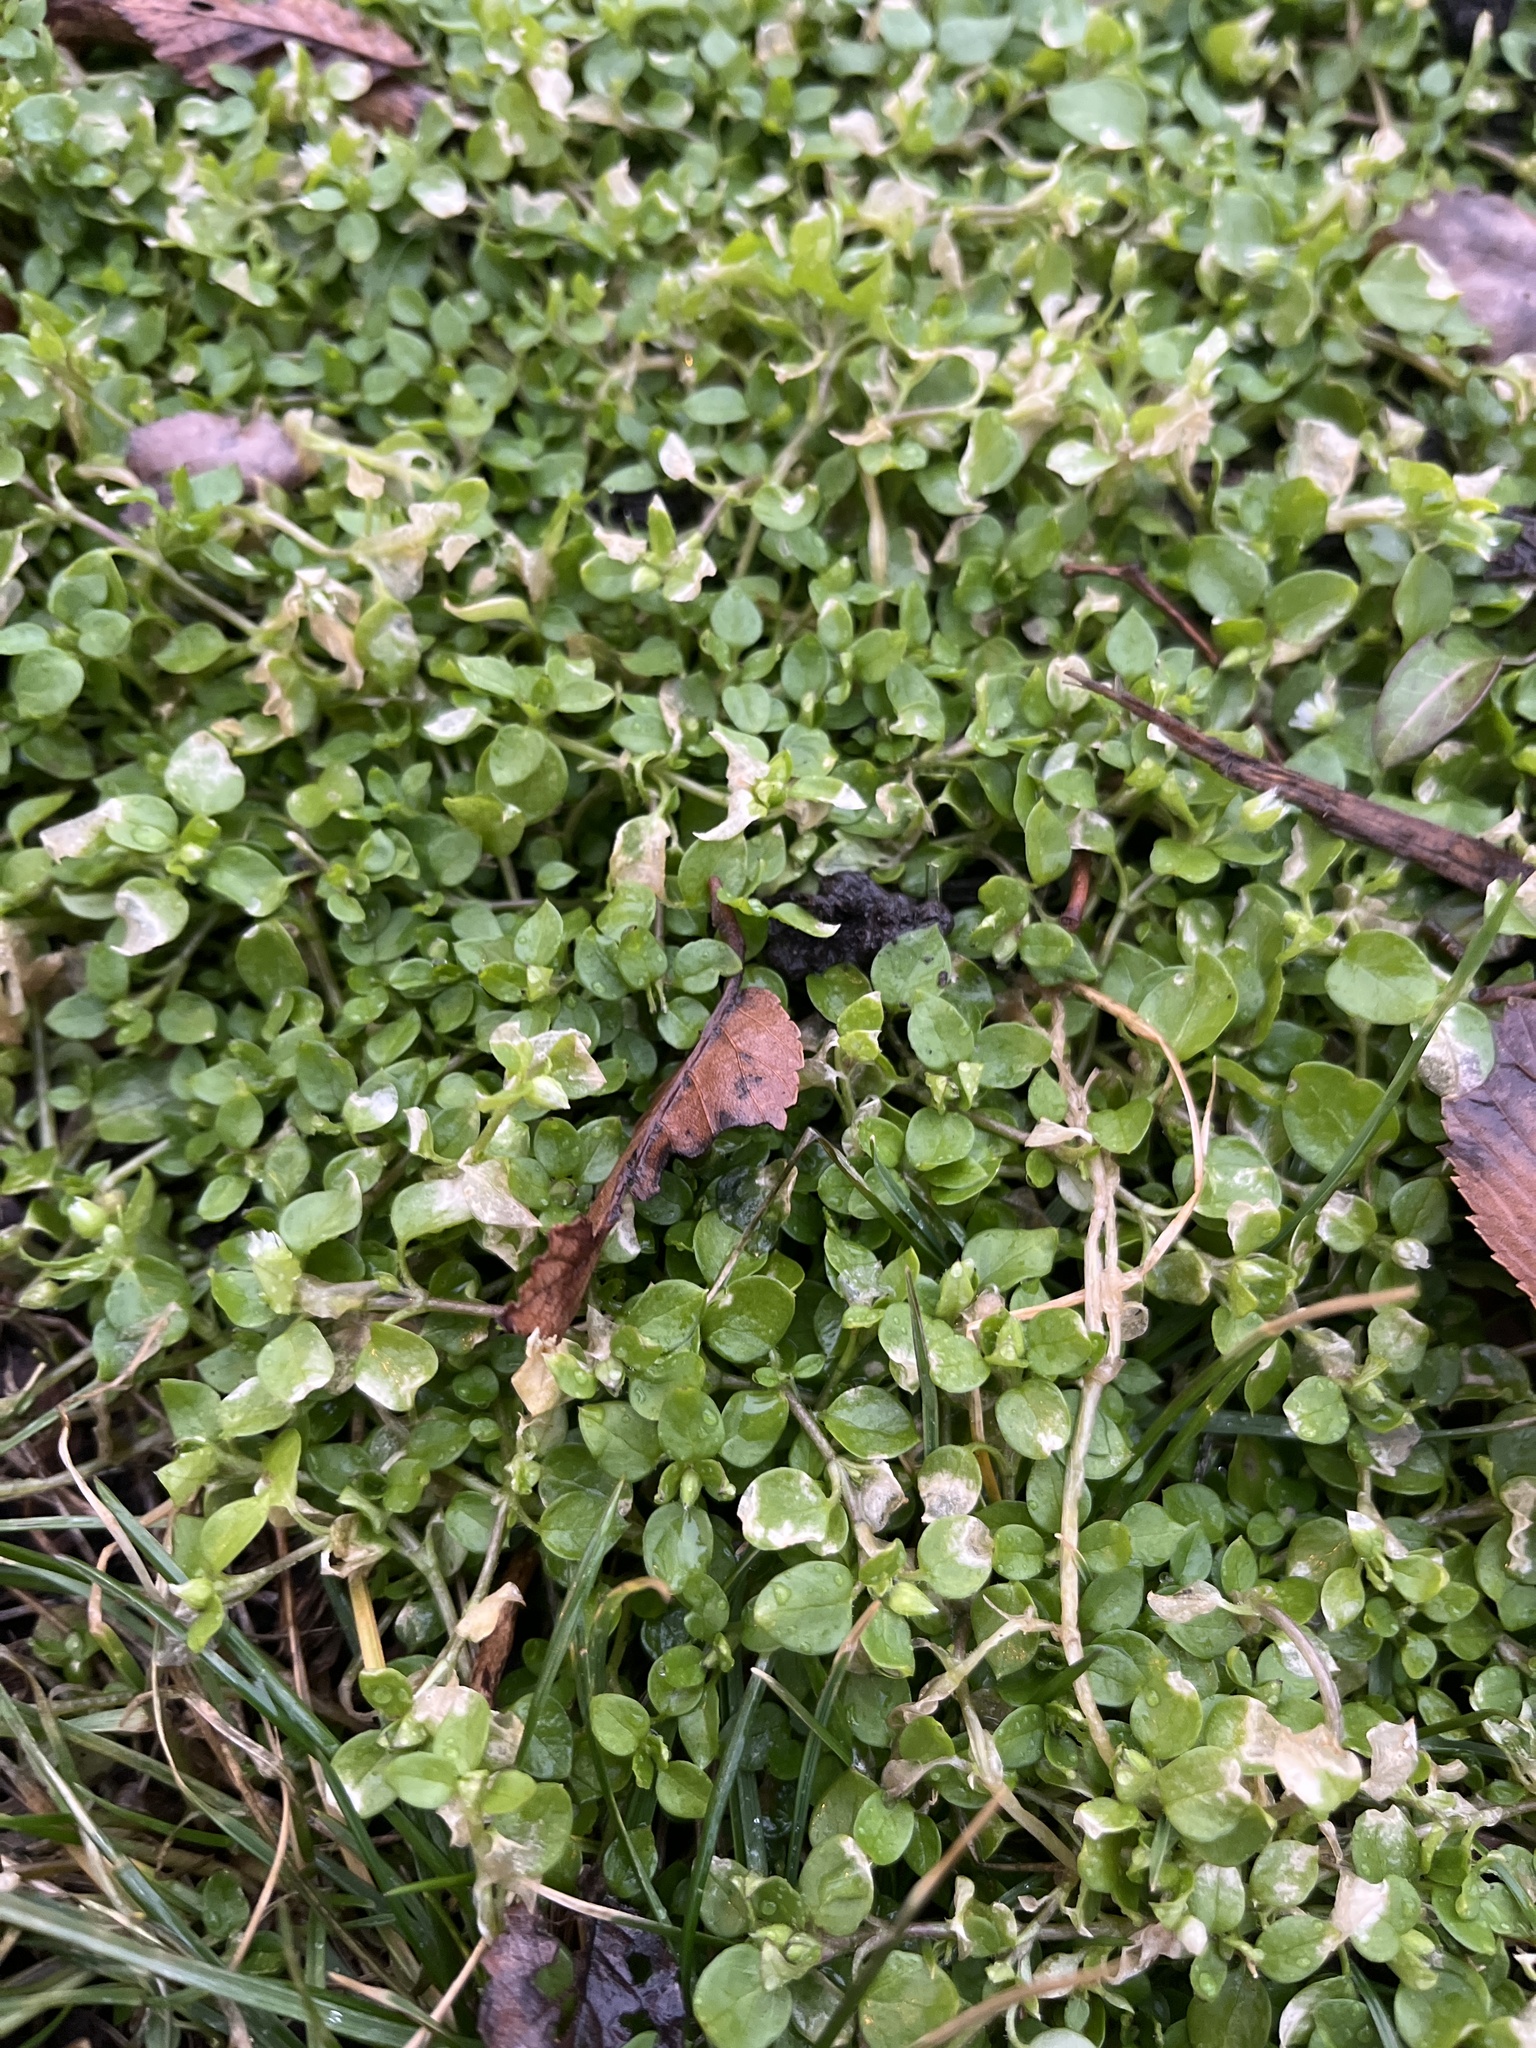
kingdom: Plantae
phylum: Tracheophyta
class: Magnoliopsida
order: Caryophyllales
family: Caryophyllaceae
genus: Stellaria
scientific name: Stellaria media
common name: Common chickweed
